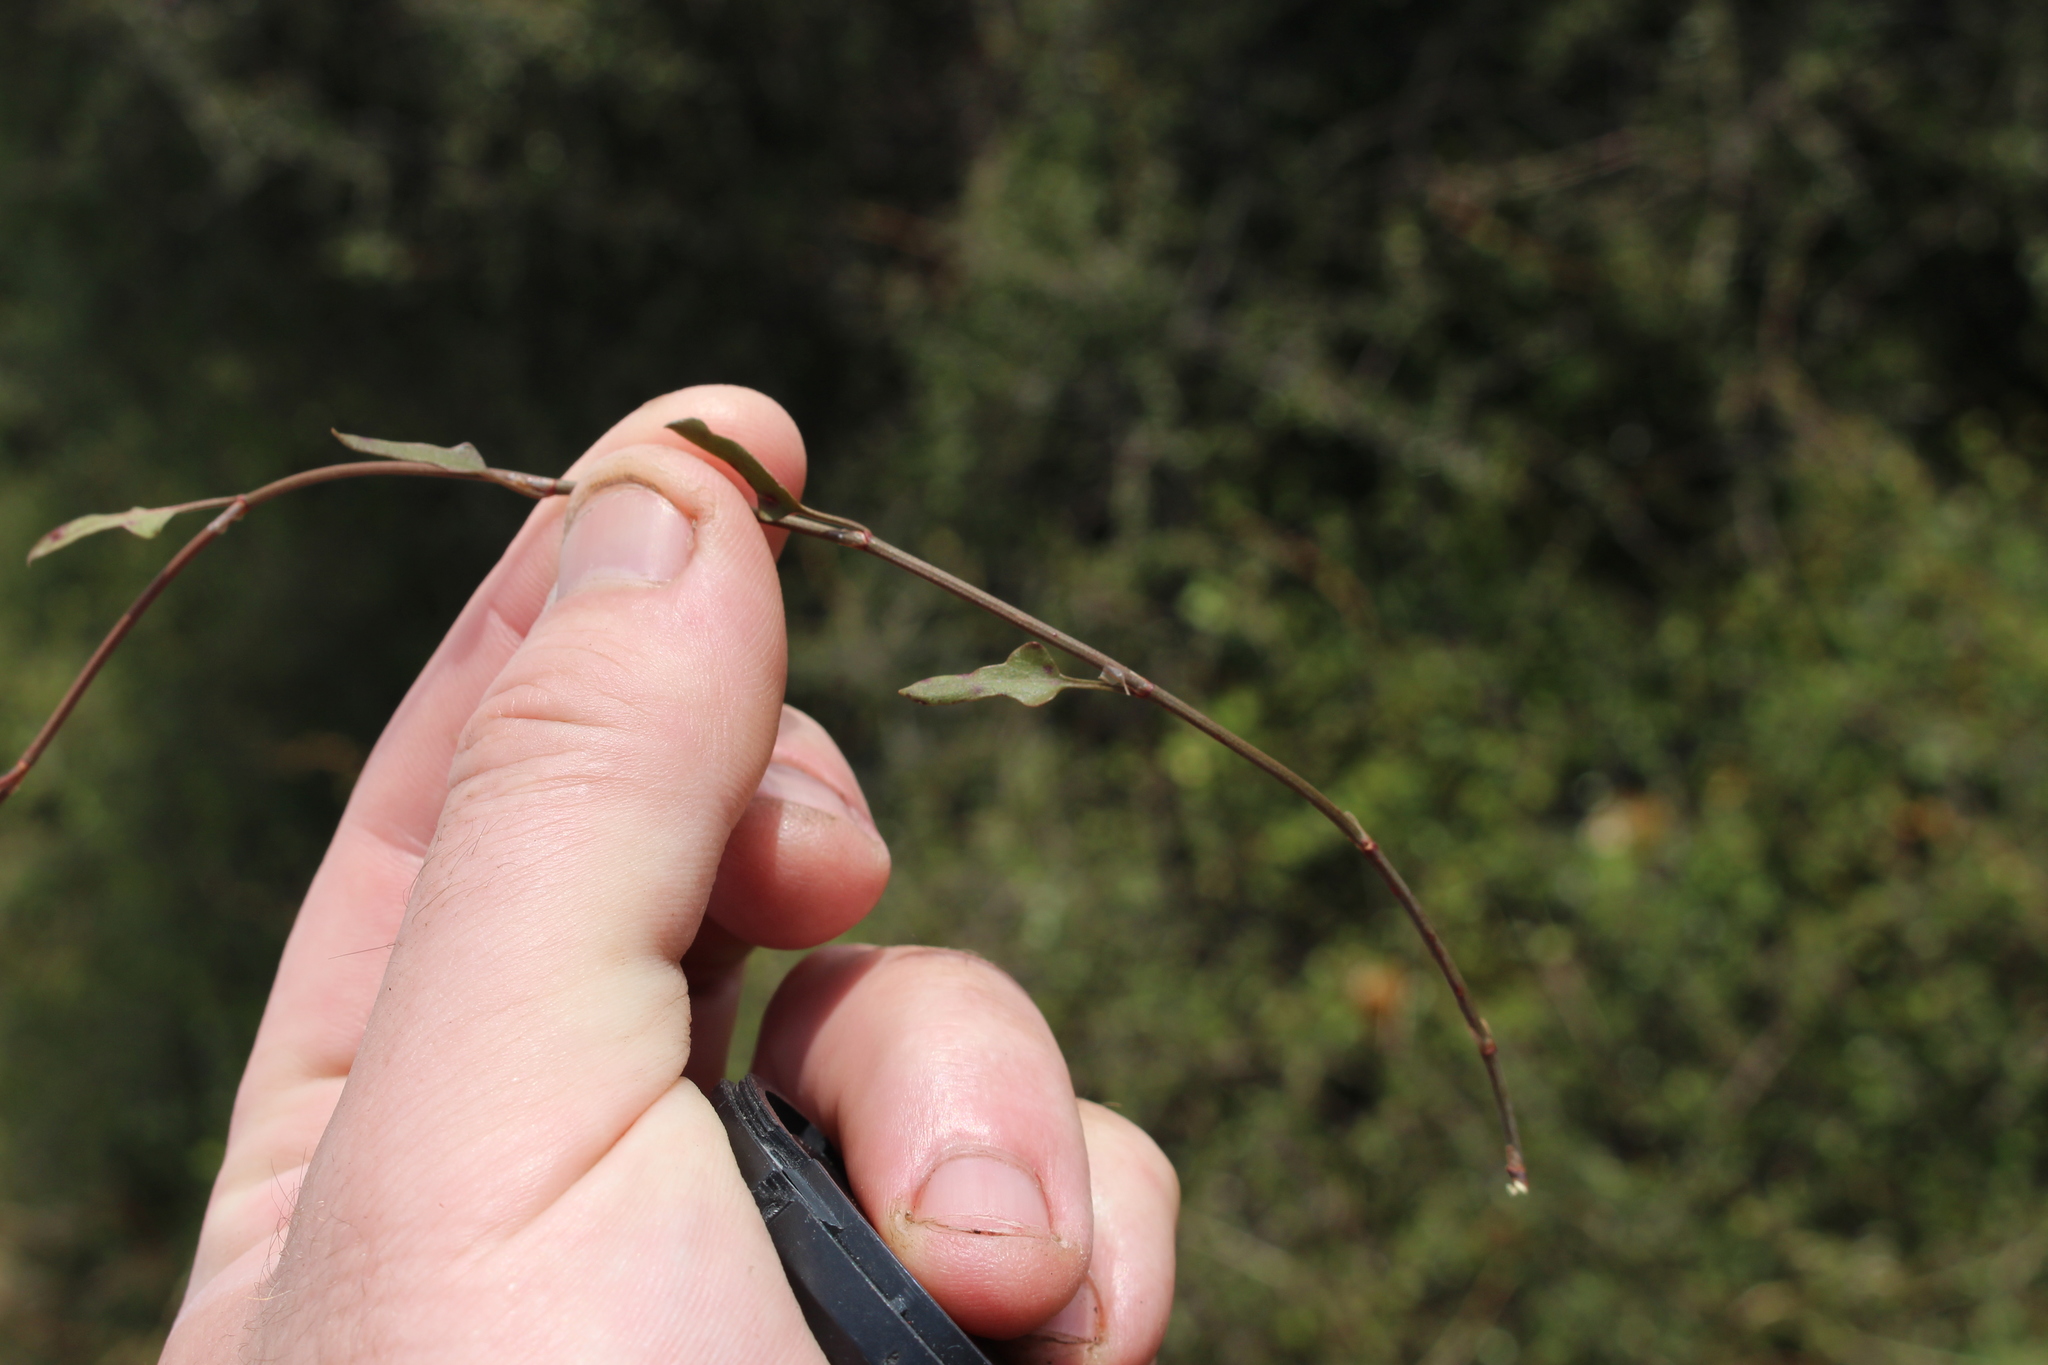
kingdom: Plantae
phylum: Tracheophyta
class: Magnoliopsida
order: Caryophyllales
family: Polygonaceae
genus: Muehlenbeckia
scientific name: Muehlenbeckia
